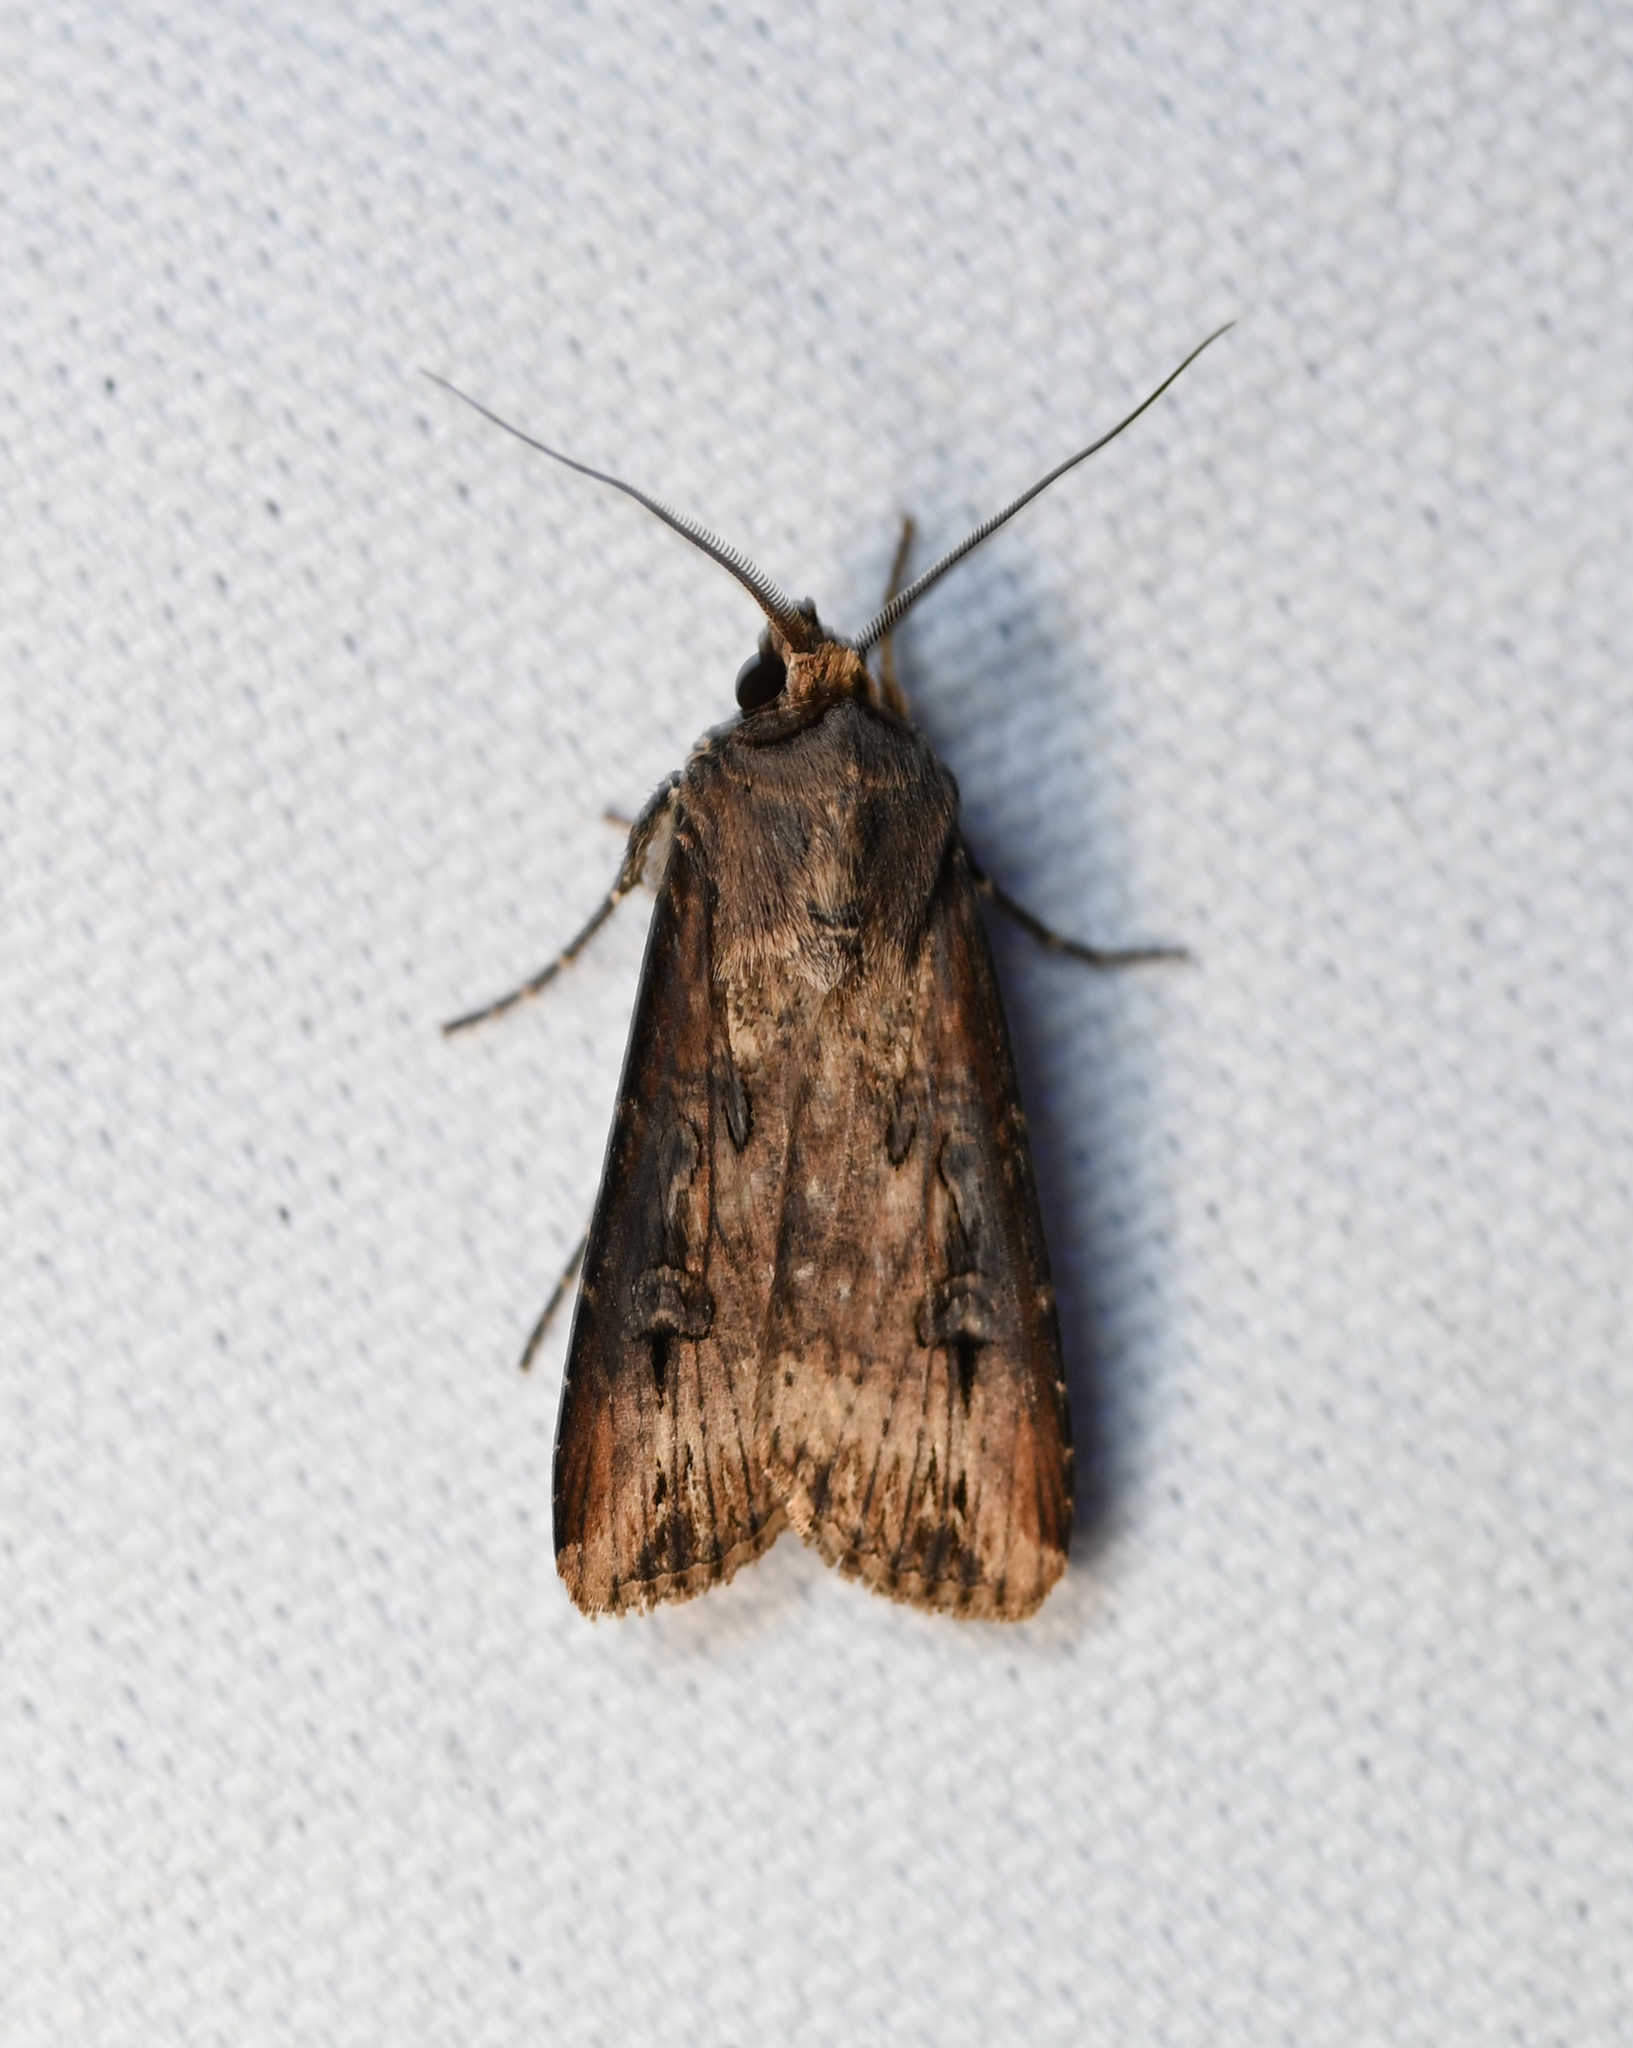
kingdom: Animalia
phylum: Arthropoda
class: Insecta
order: Lepidoptera
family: Noctuidae
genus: Agrotis
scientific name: Agrotis ipsilon
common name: Dark sword-grass
